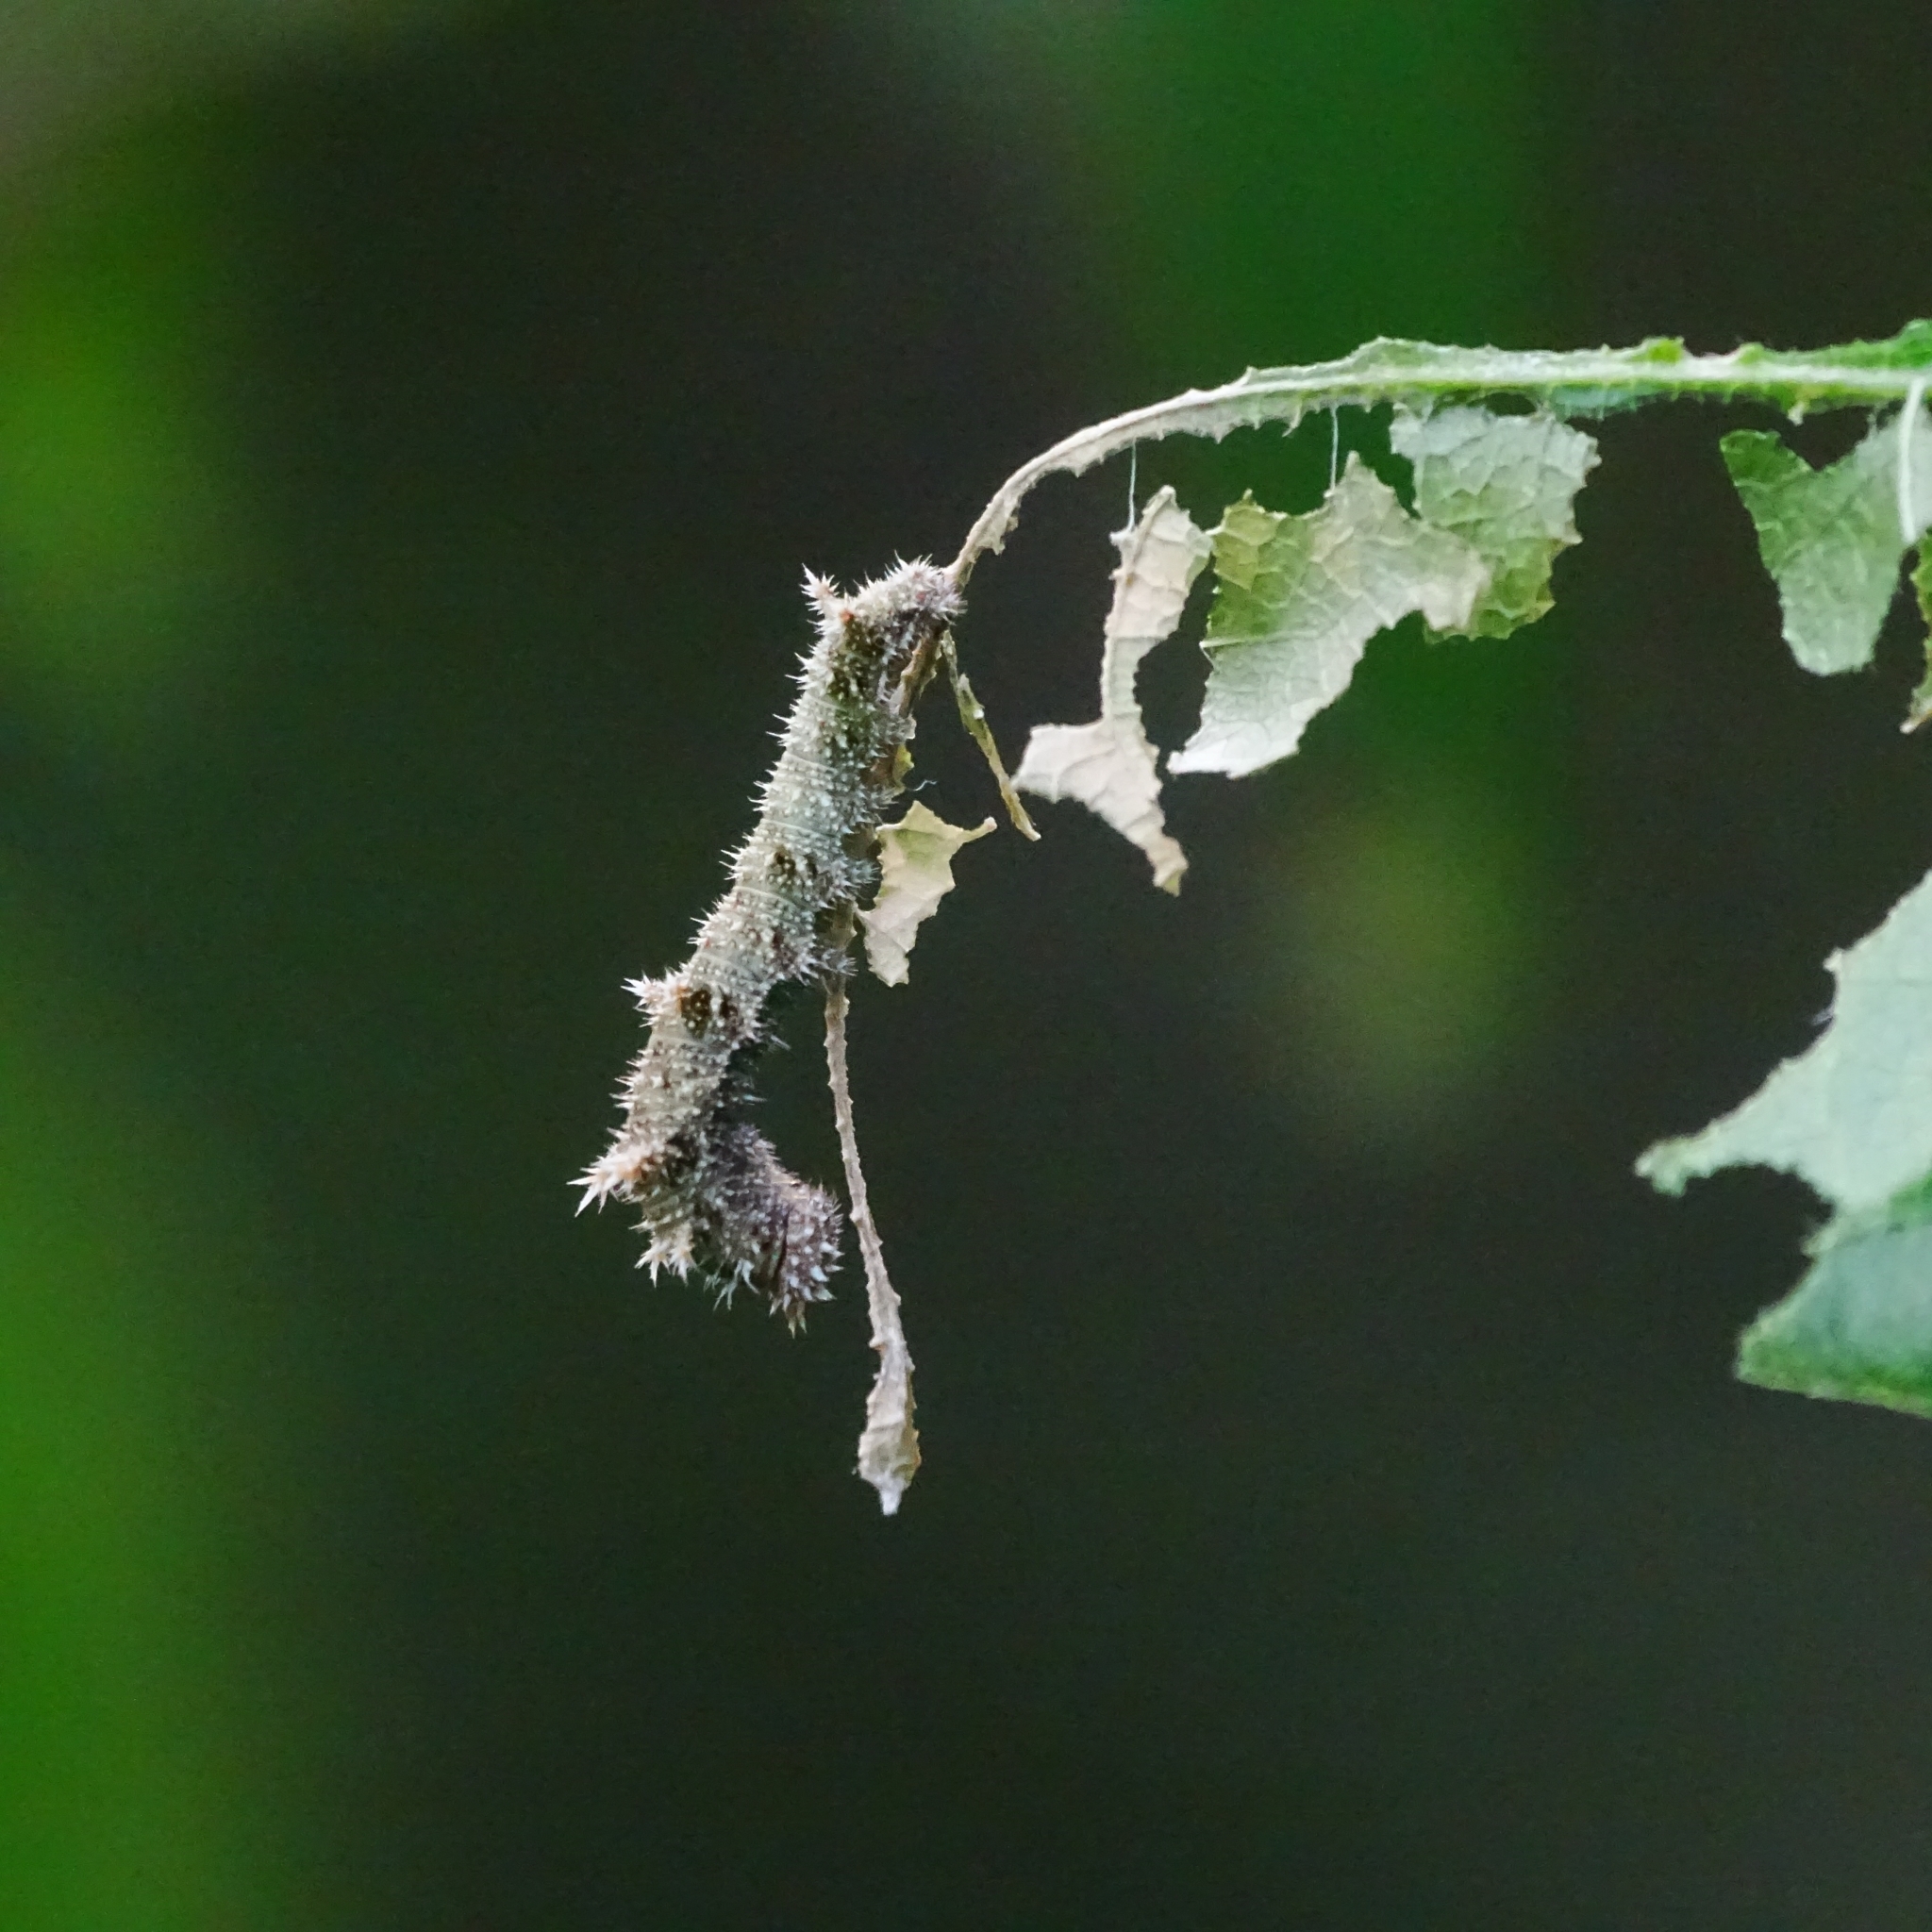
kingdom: Animalia
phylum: Arthropoda
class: Insecta
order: Lepidoptera
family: Nymphalidae
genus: Neptis
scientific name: Neptis hylas
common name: Common sailer
